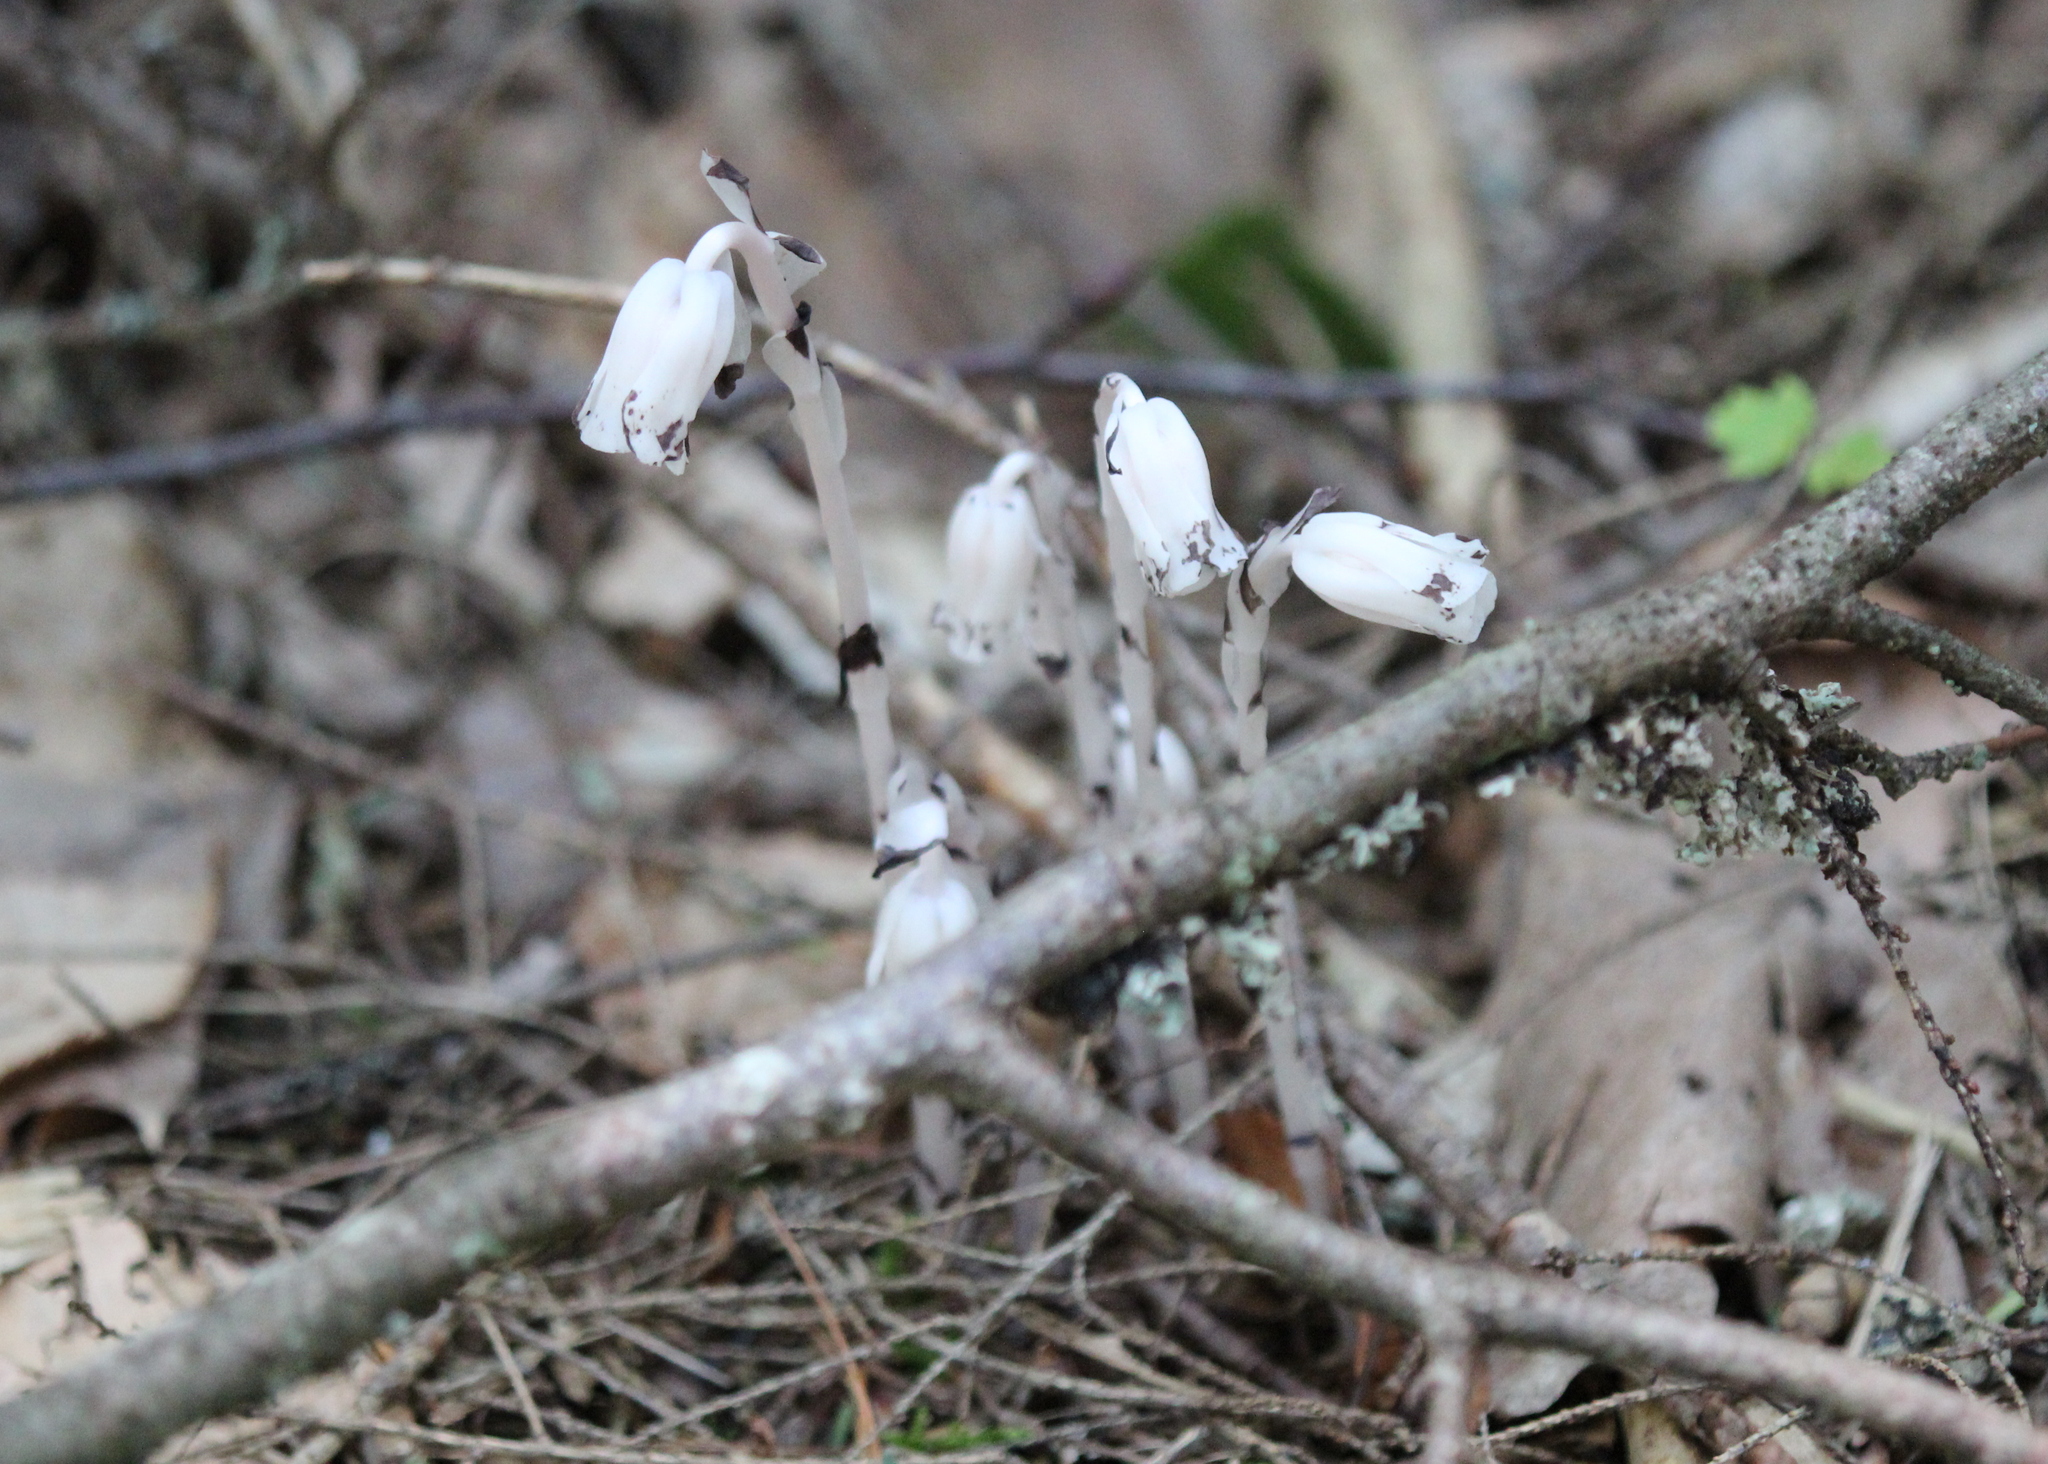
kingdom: Plantae
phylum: Tracheophyta
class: Magnoliopsida
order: Ericales
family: Ericaceae
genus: Monotropa
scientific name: Monotropa uniflora
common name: Convulsion root
